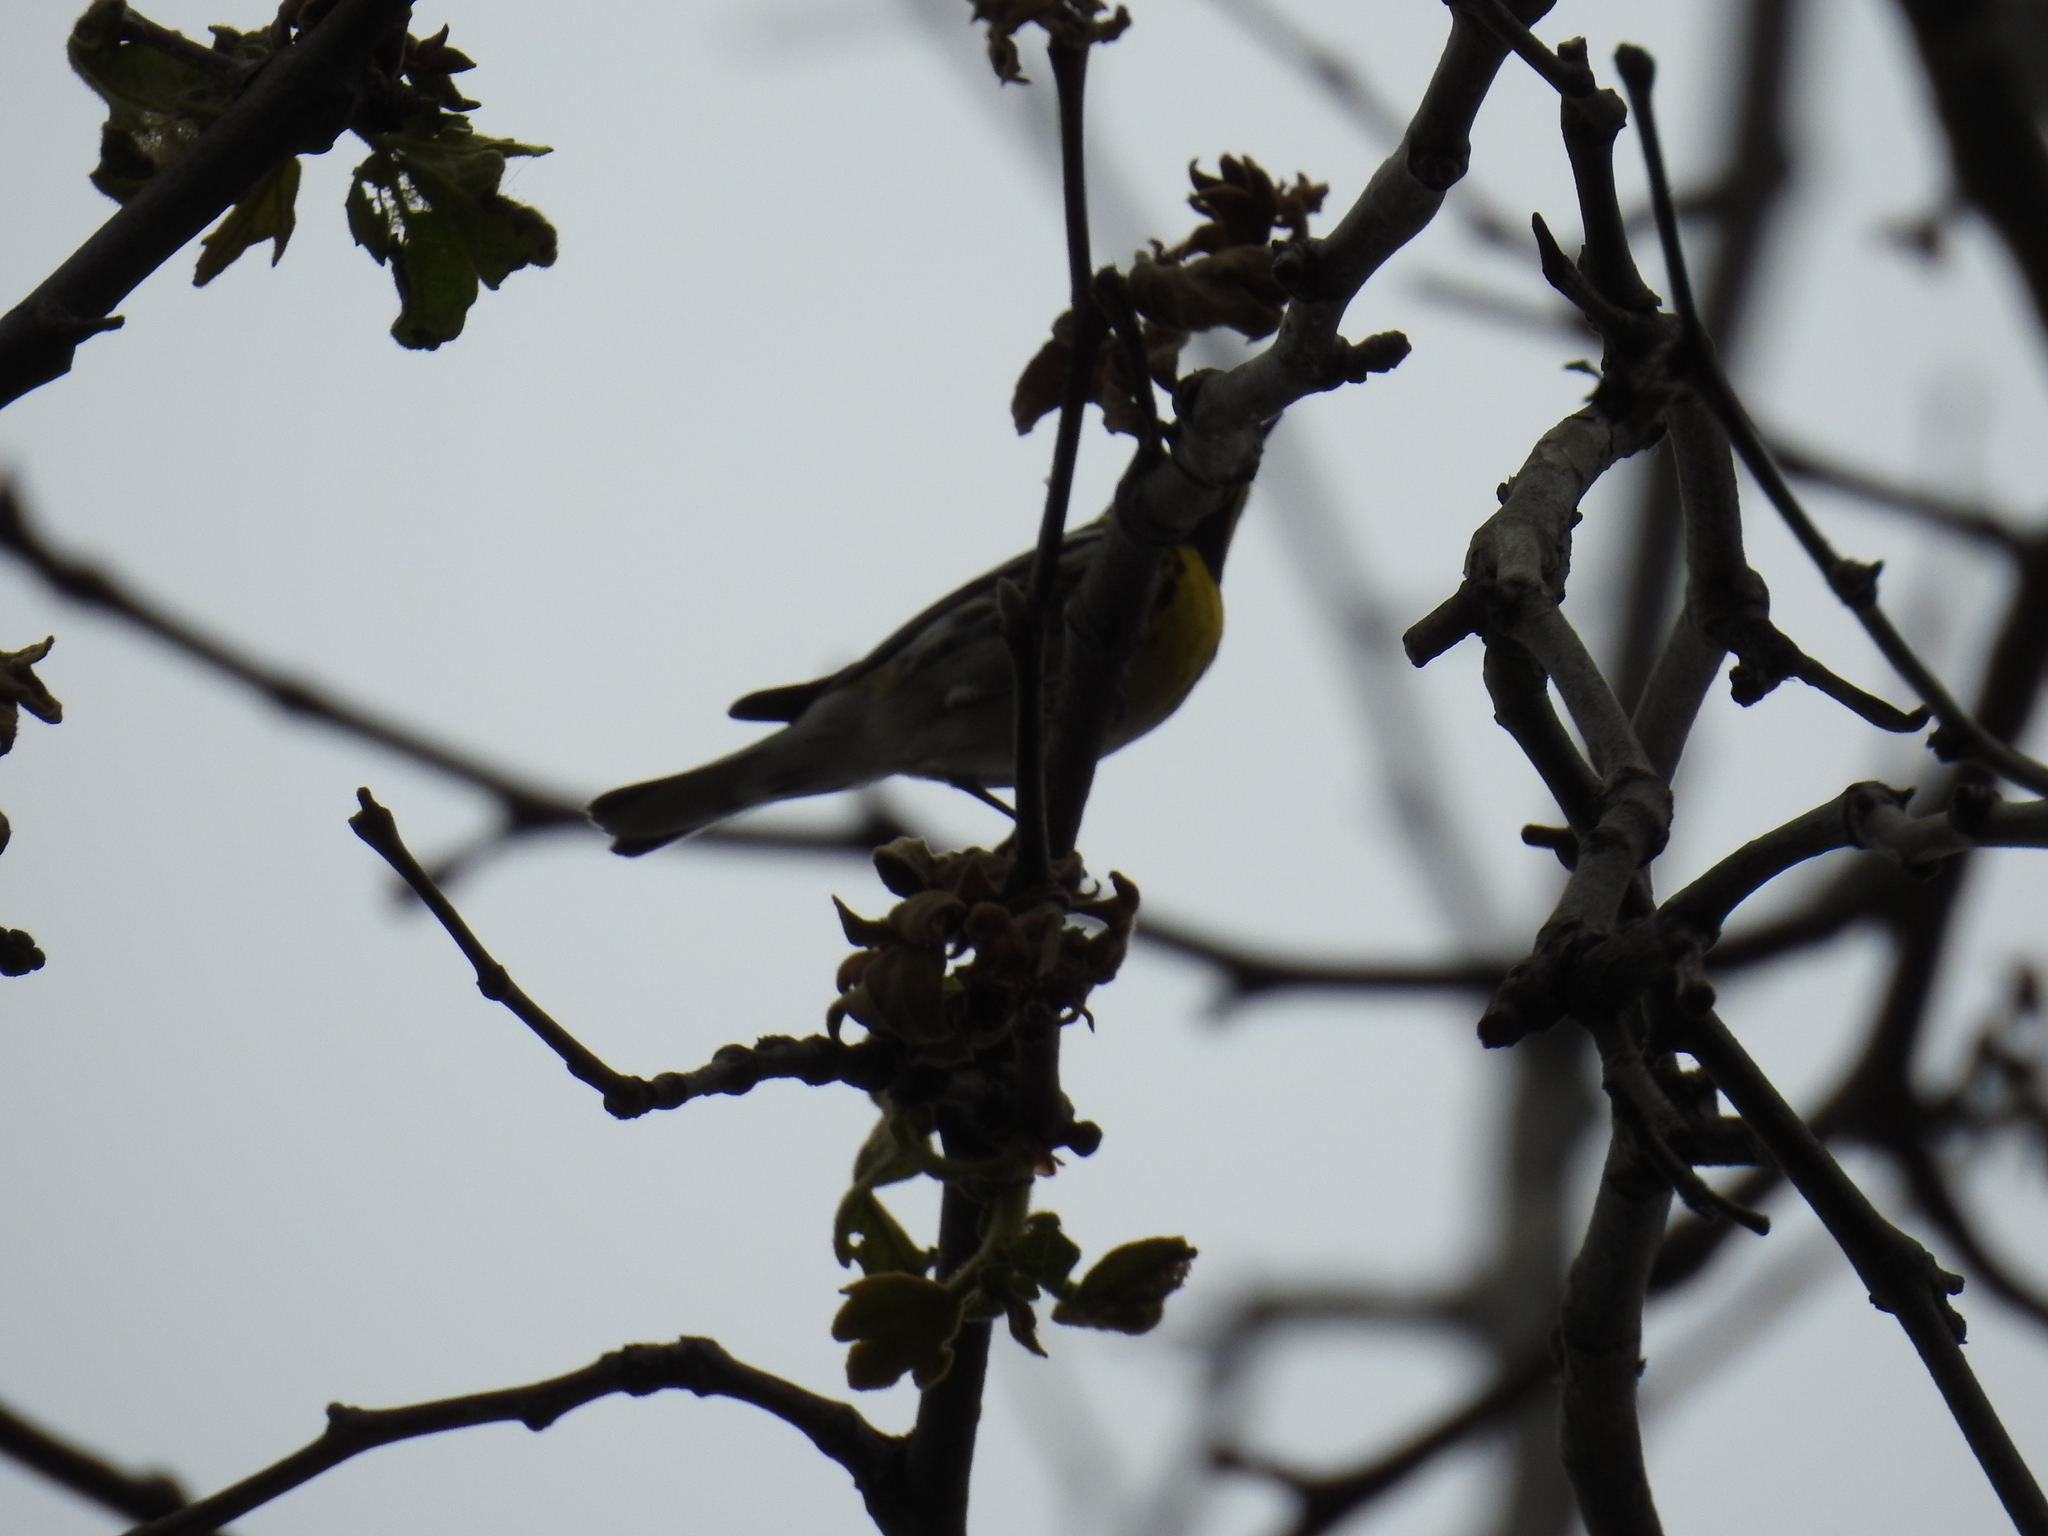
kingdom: Animalia
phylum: Chordata
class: Aves
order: Passeriformes
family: Parulidae
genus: Setophaga
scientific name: Setophaga townsendi
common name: Townsend's warbler
